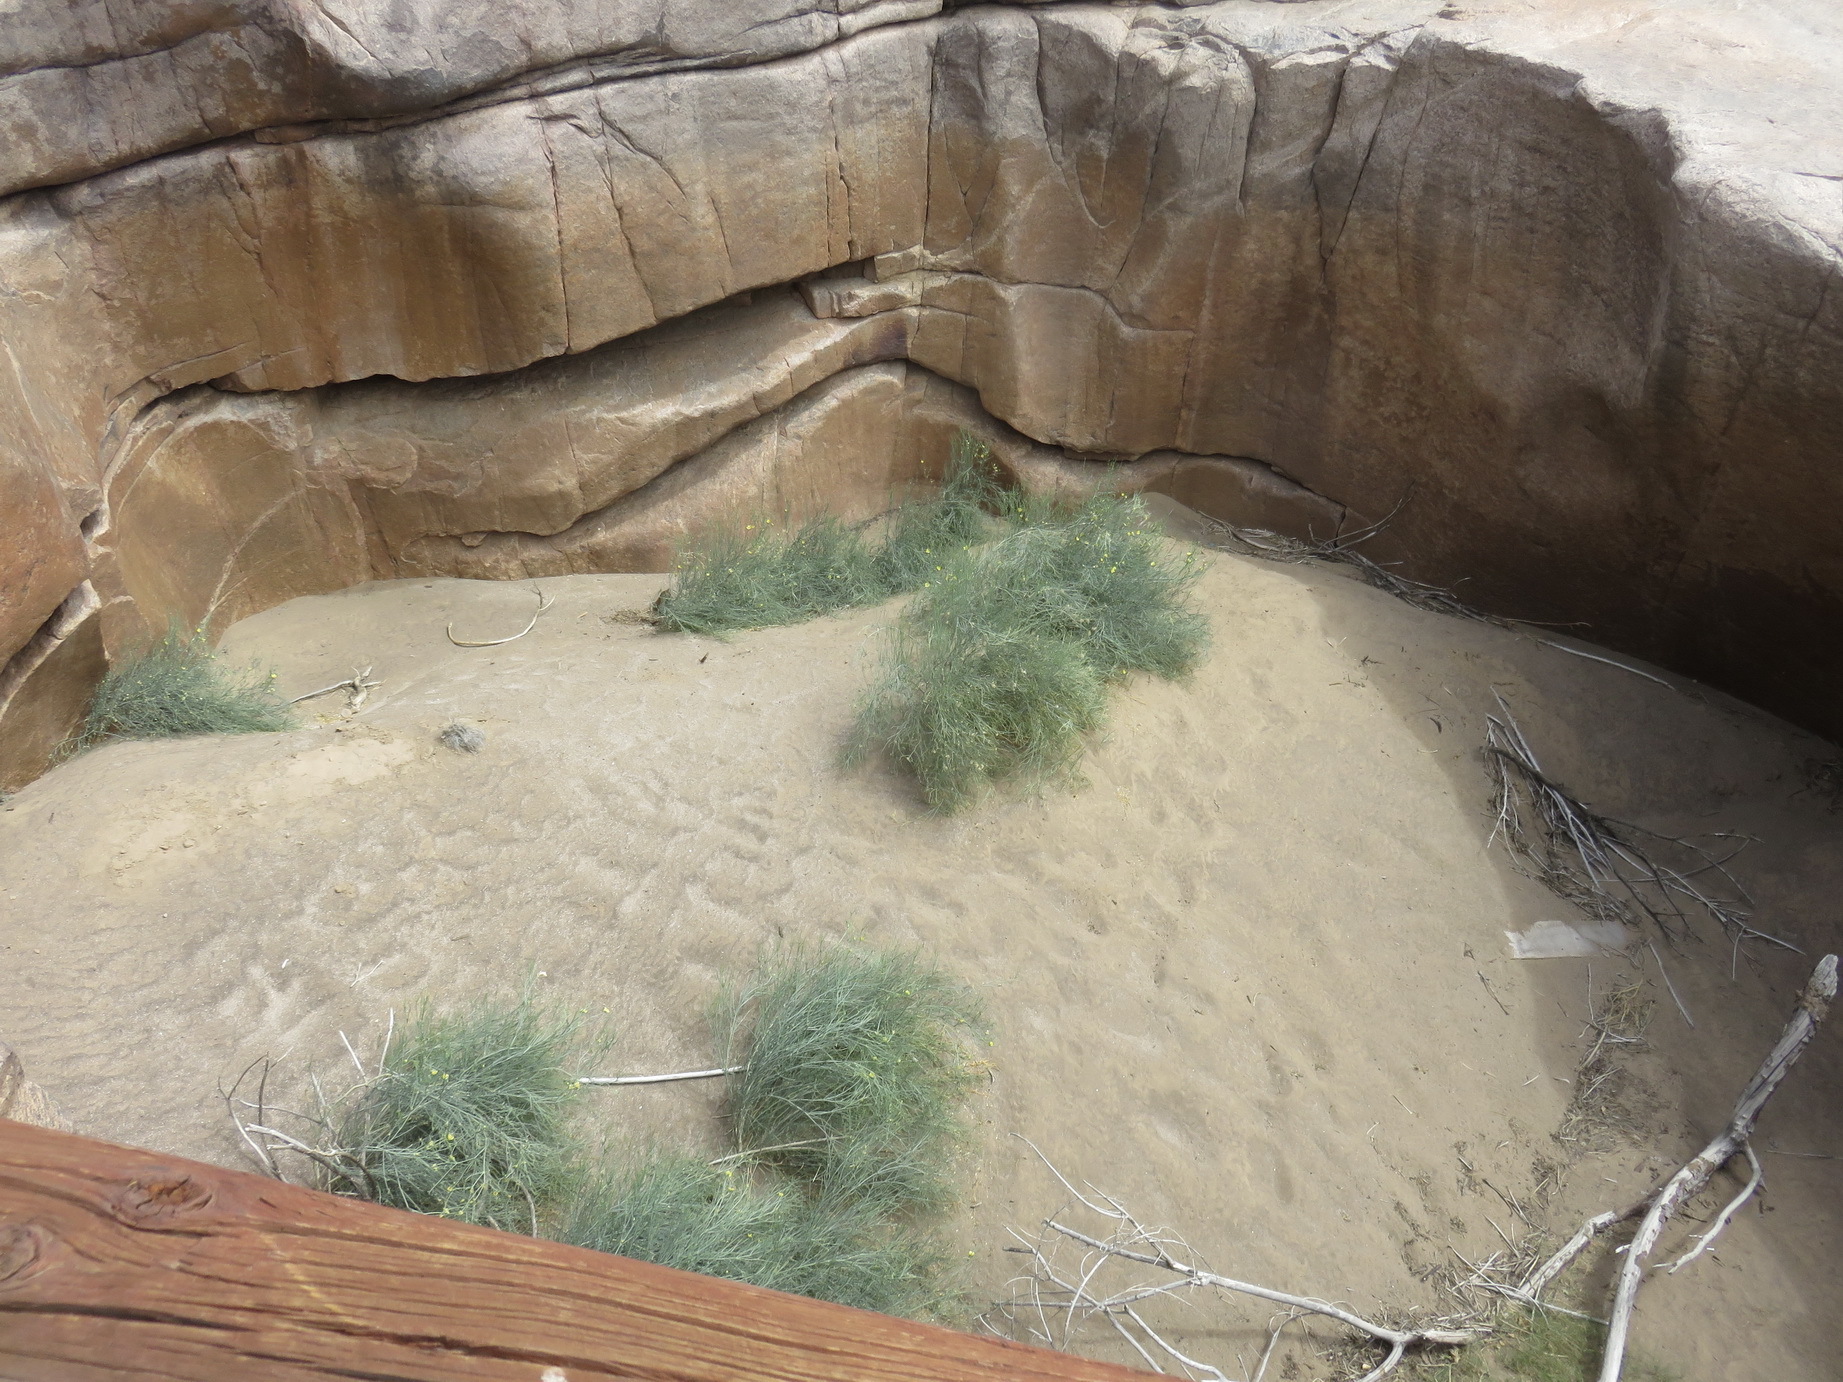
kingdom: Plantae
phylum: Tracheophyta
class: Magnoliopsida
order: Zygophyllales
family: Zygophyllaceae
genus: Sisyndite
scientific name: Sisyndite spartea
